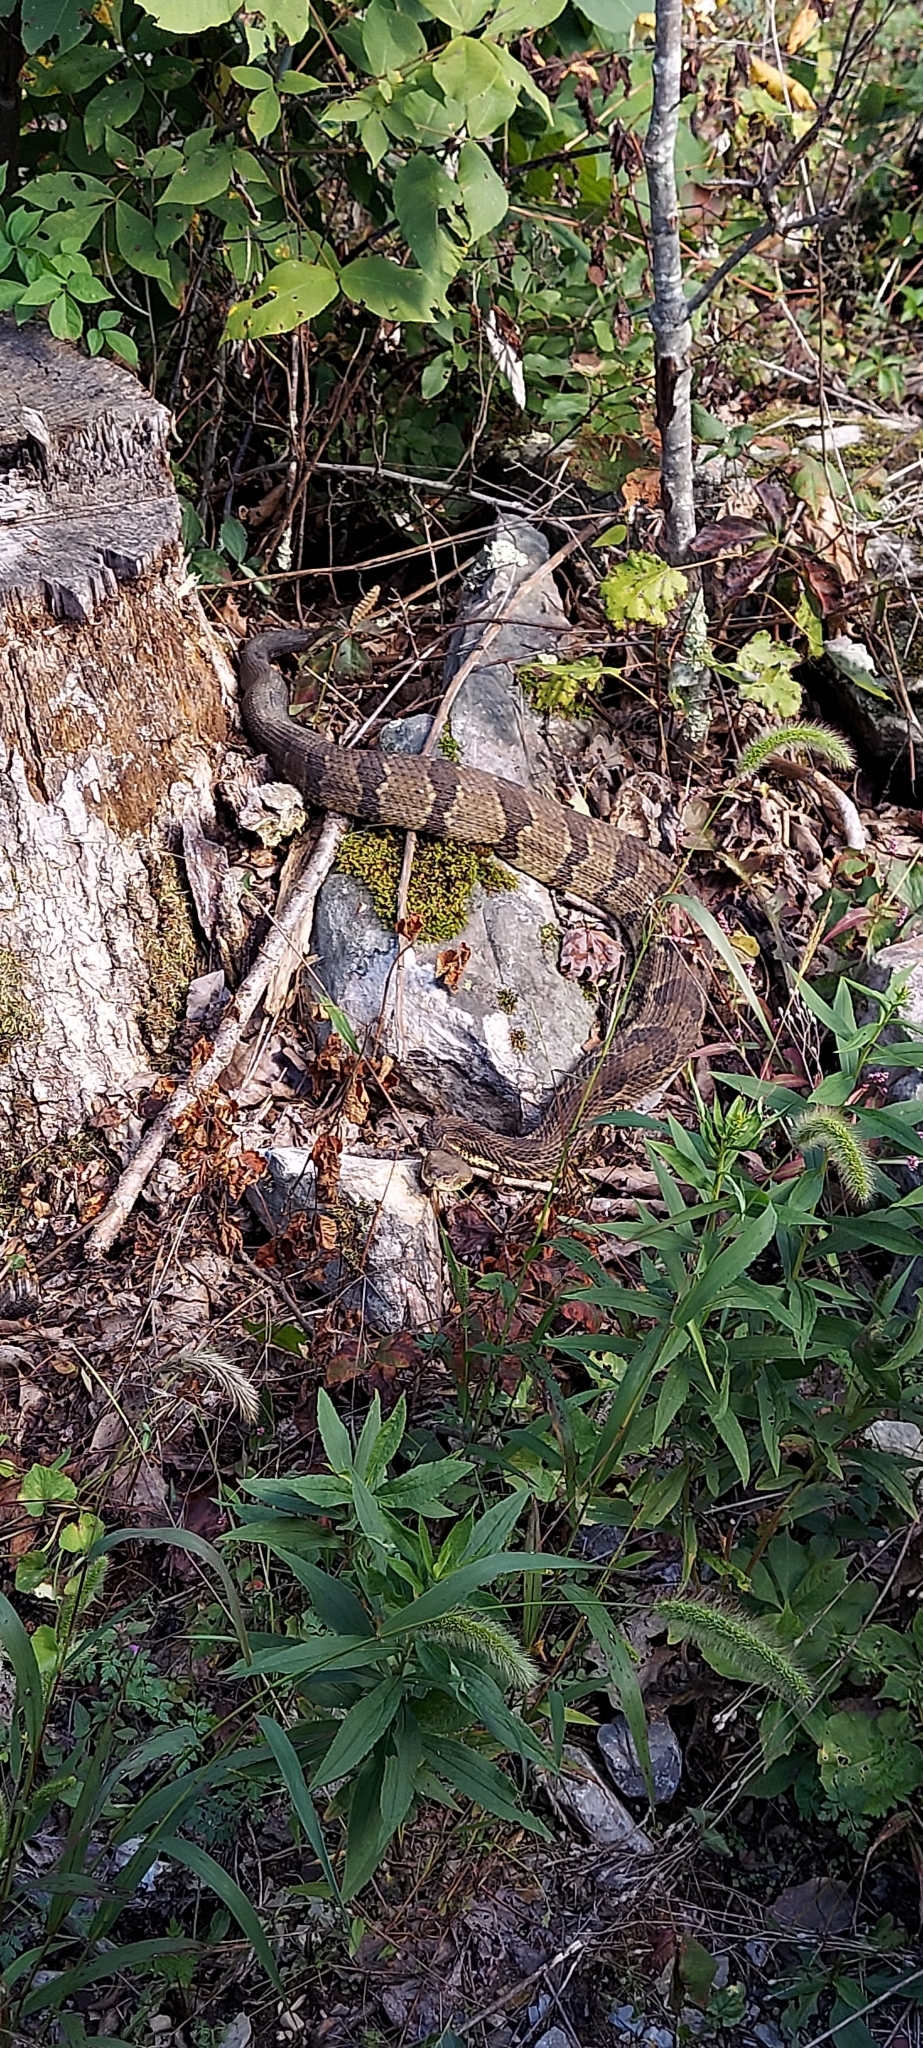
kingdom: Animalia
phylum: Chordata
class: Squamata
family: Viperidae
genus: Crotalus
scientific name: Crotalus horridus
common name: Timber rattlesnake
